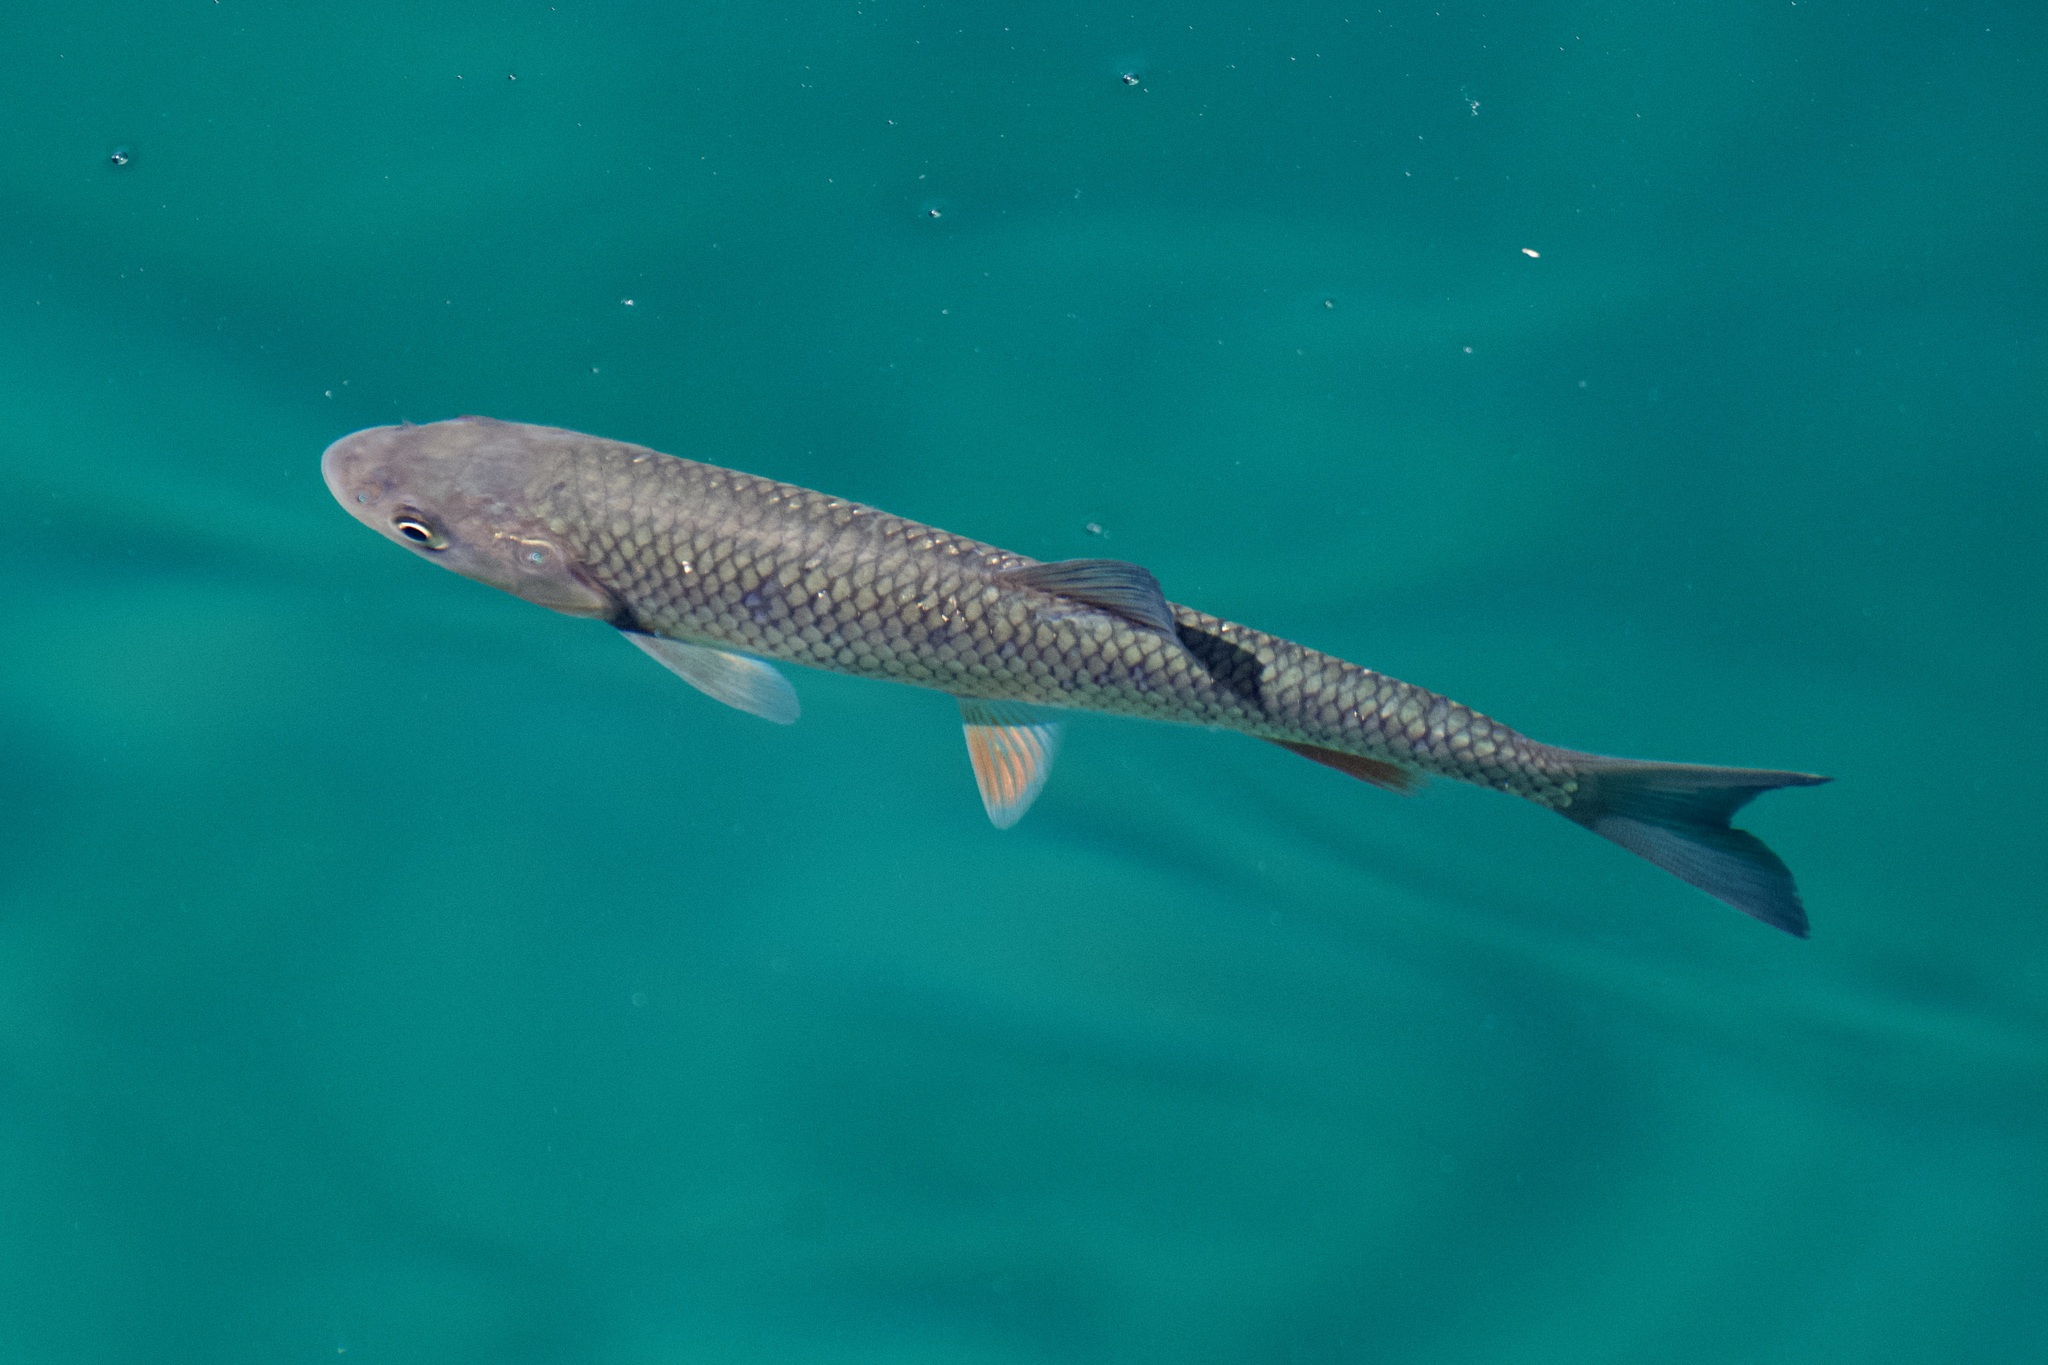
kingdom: Animalia
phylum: Chordata
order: Cypriniformes
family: Cyprinidae
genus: Squalius
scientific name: Squalius cephalus
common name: Chub
